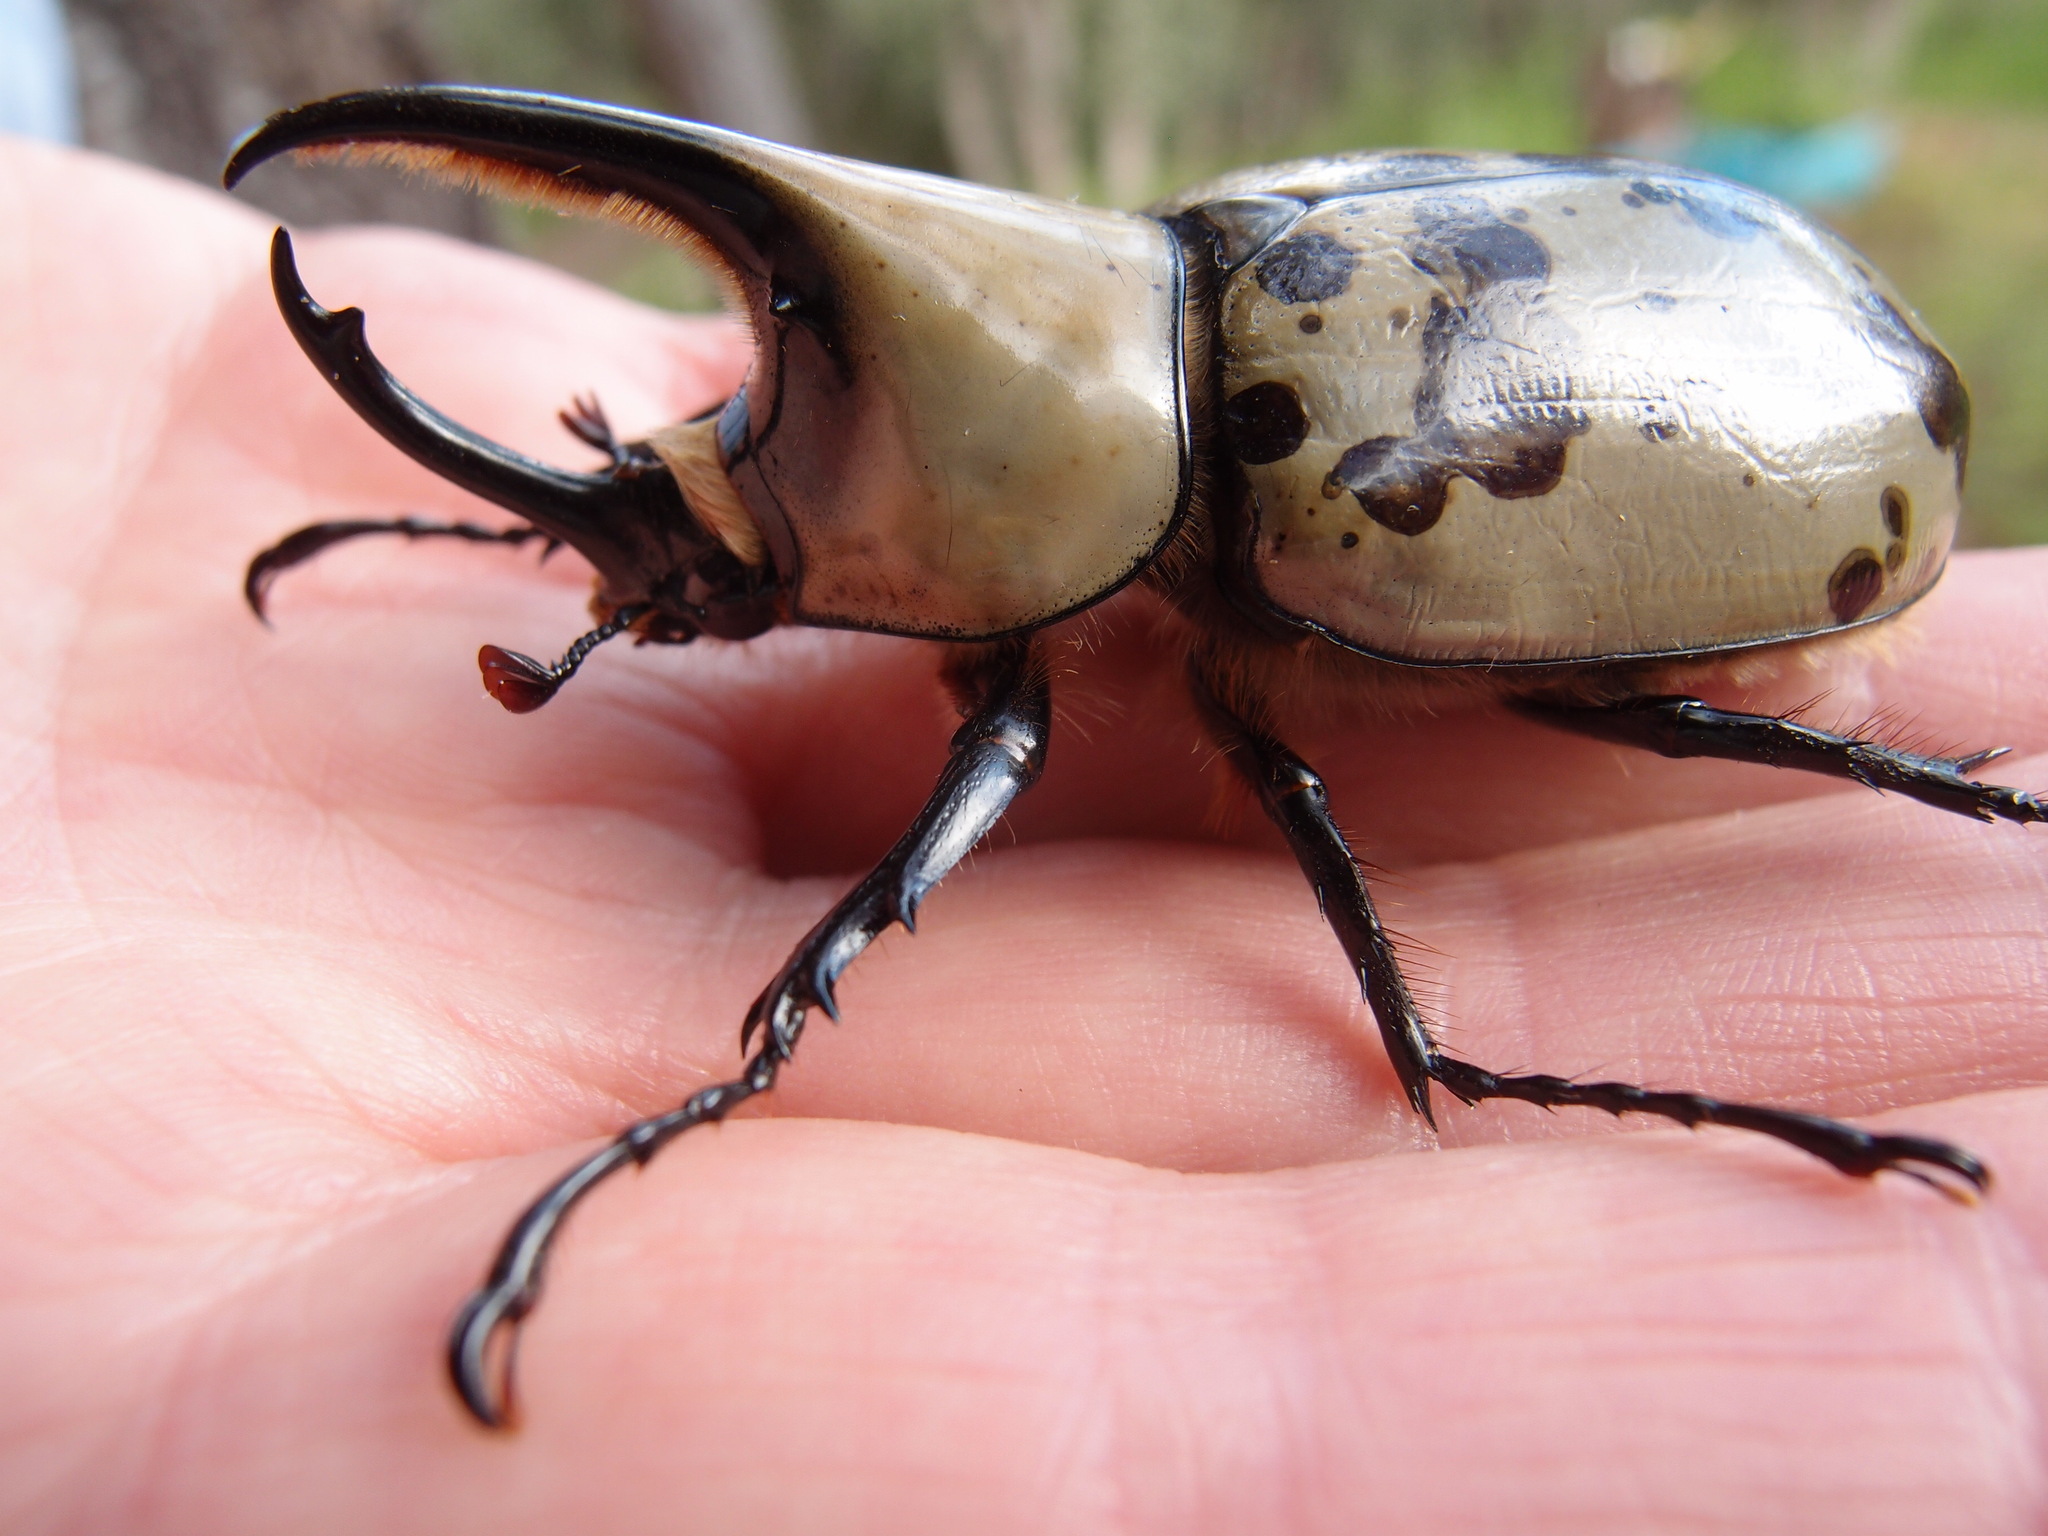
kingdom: Animalia
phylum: Arthropoda
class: Insecta
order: Coleoptera
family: Scarabaeidae
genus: Dynastes
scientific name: Dynastes grantii
